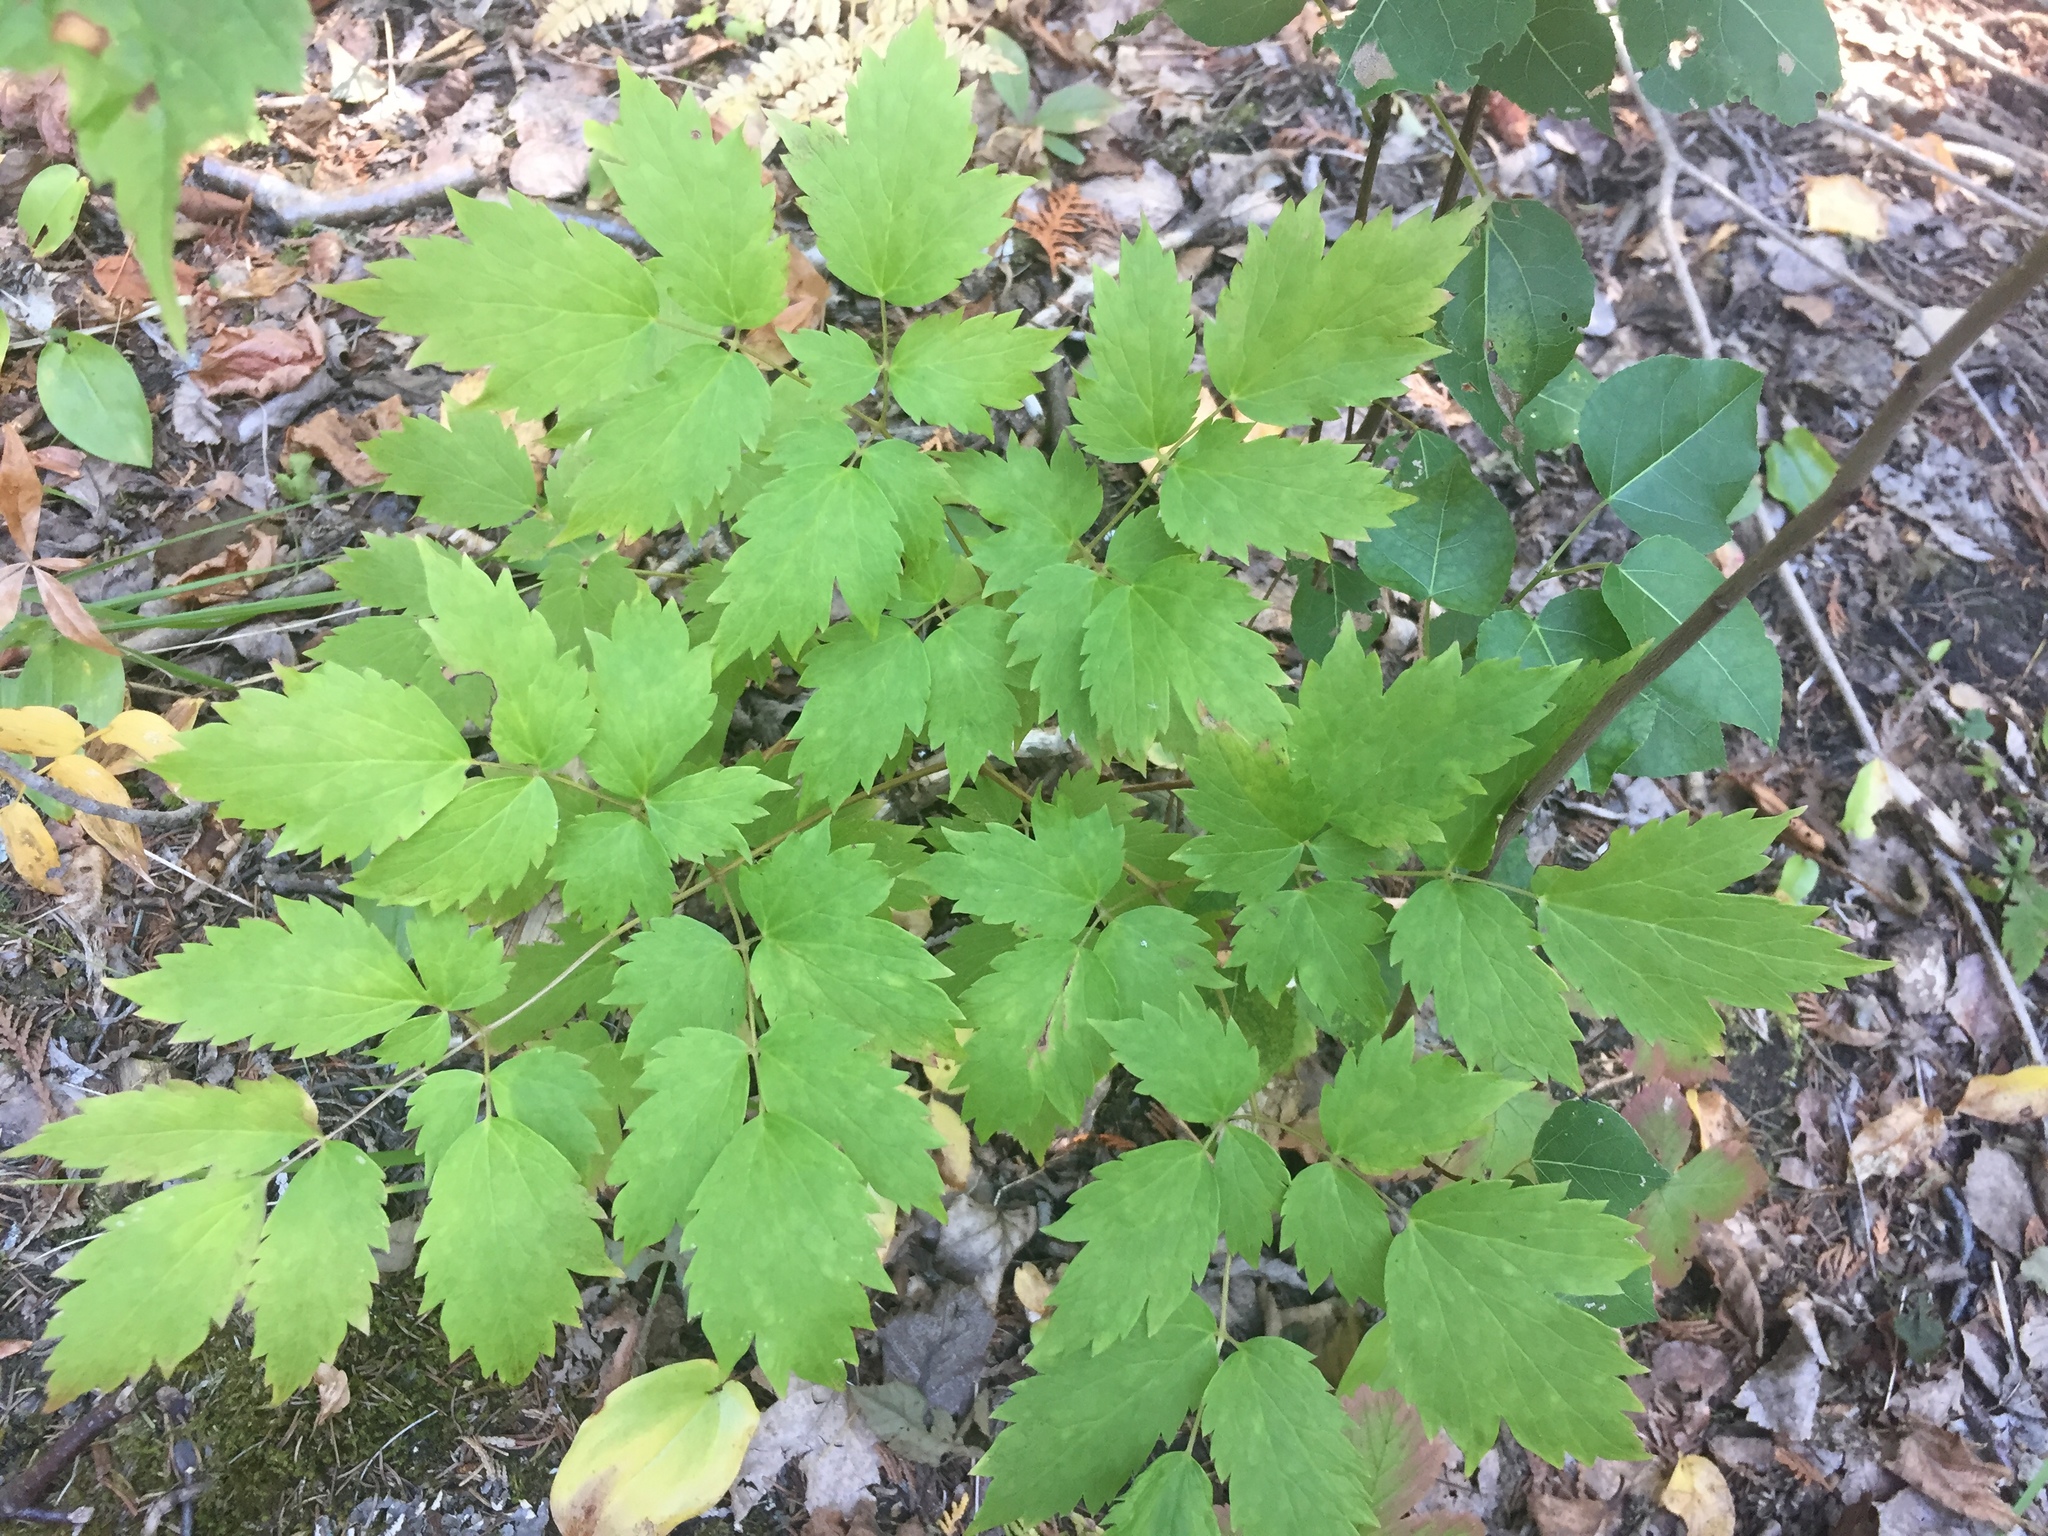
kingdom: Plantae
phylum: Tracheophyta
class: Magnoliopsida
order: Ranunculales
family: Ranunculaceae
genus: Actaea
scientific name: Actaea rubra
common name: Red baneberry
